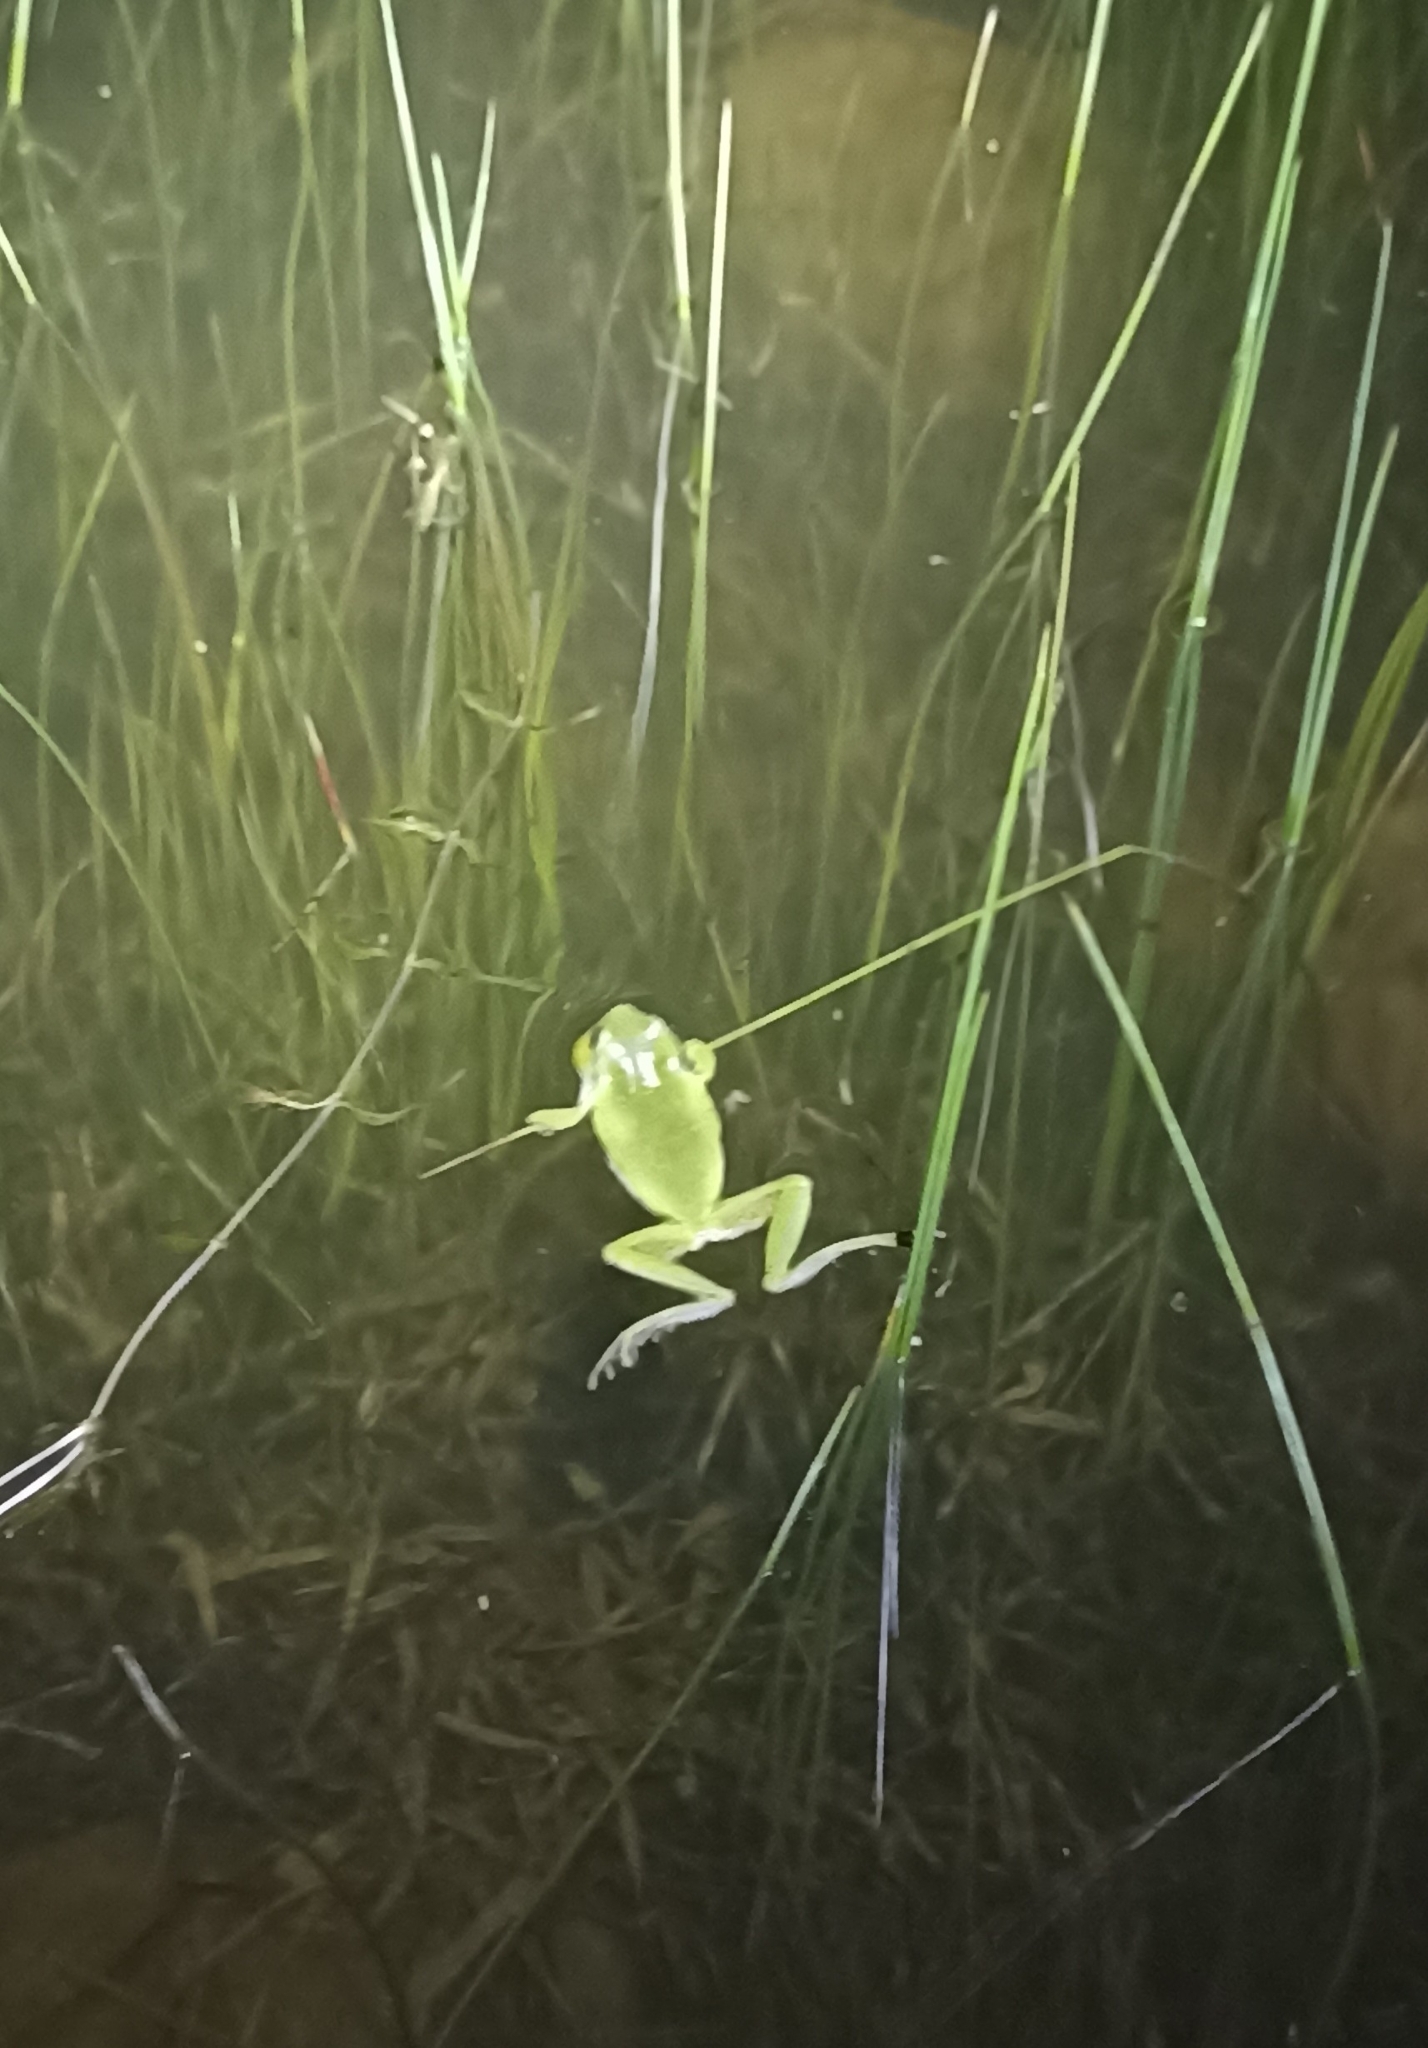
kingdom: Animalia
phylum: Chordata
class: Amphibia
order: Anura
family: Hylidae
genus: Hyla
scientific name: Hyla meridionalis
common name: Stripeless tree frog
